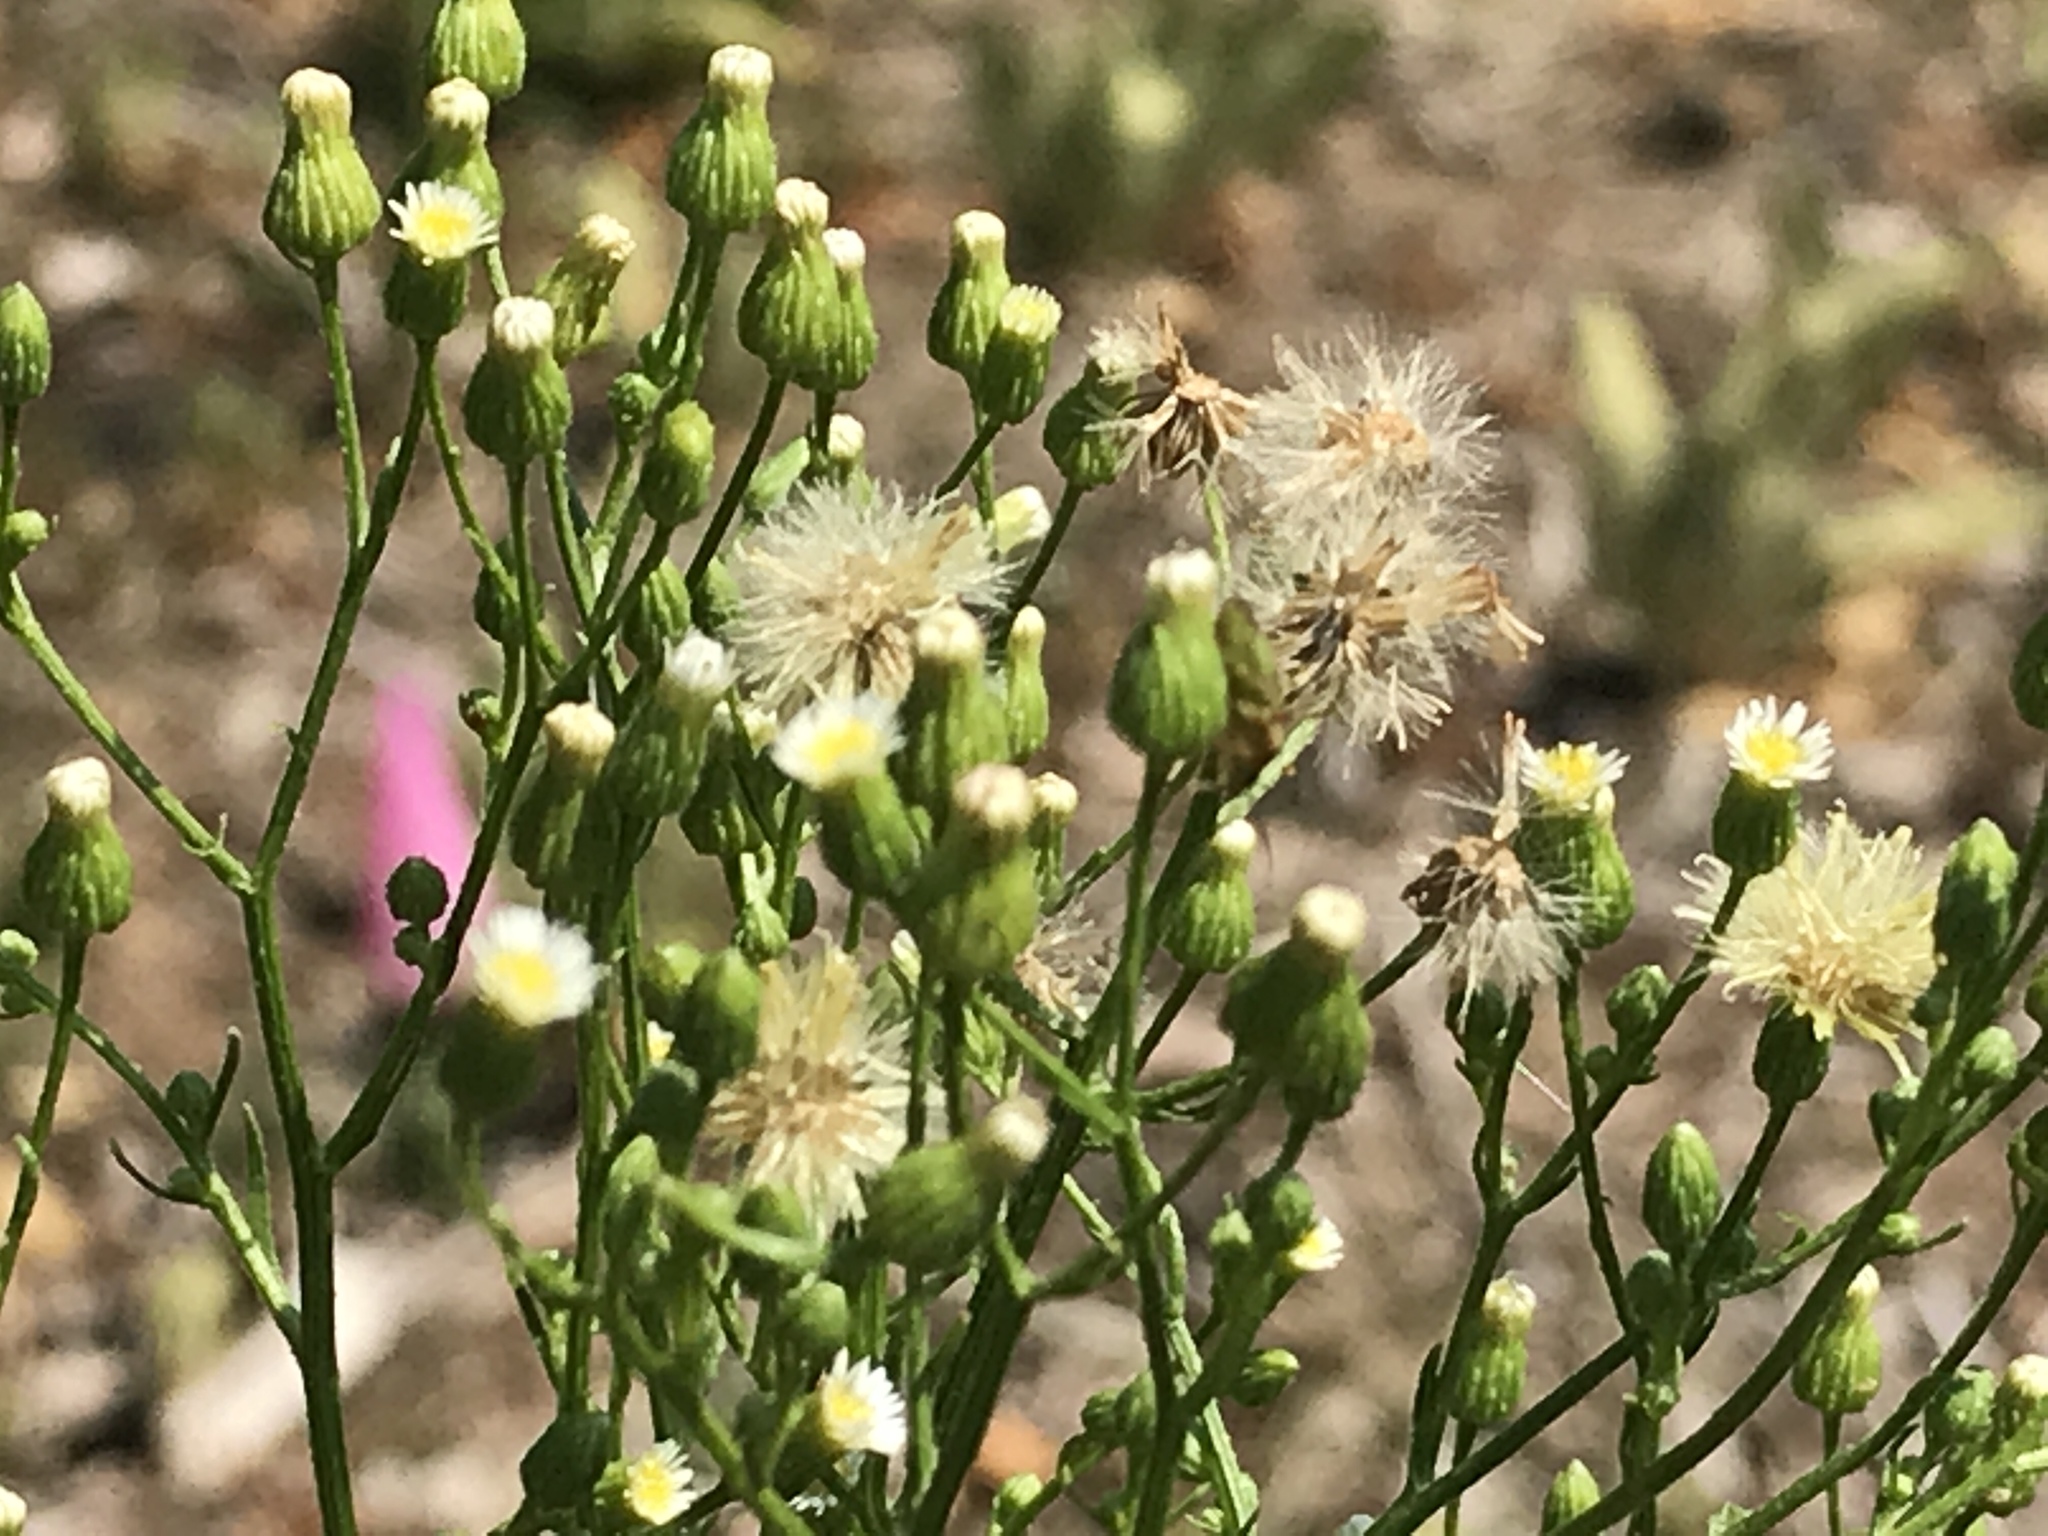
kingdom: Plantae
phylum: Tracheophyta
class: Magnoliopsida
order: Asterales
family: Asteraceae
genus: Erigeron
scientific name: Erigeron canadensis
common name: Canadian fleabane
